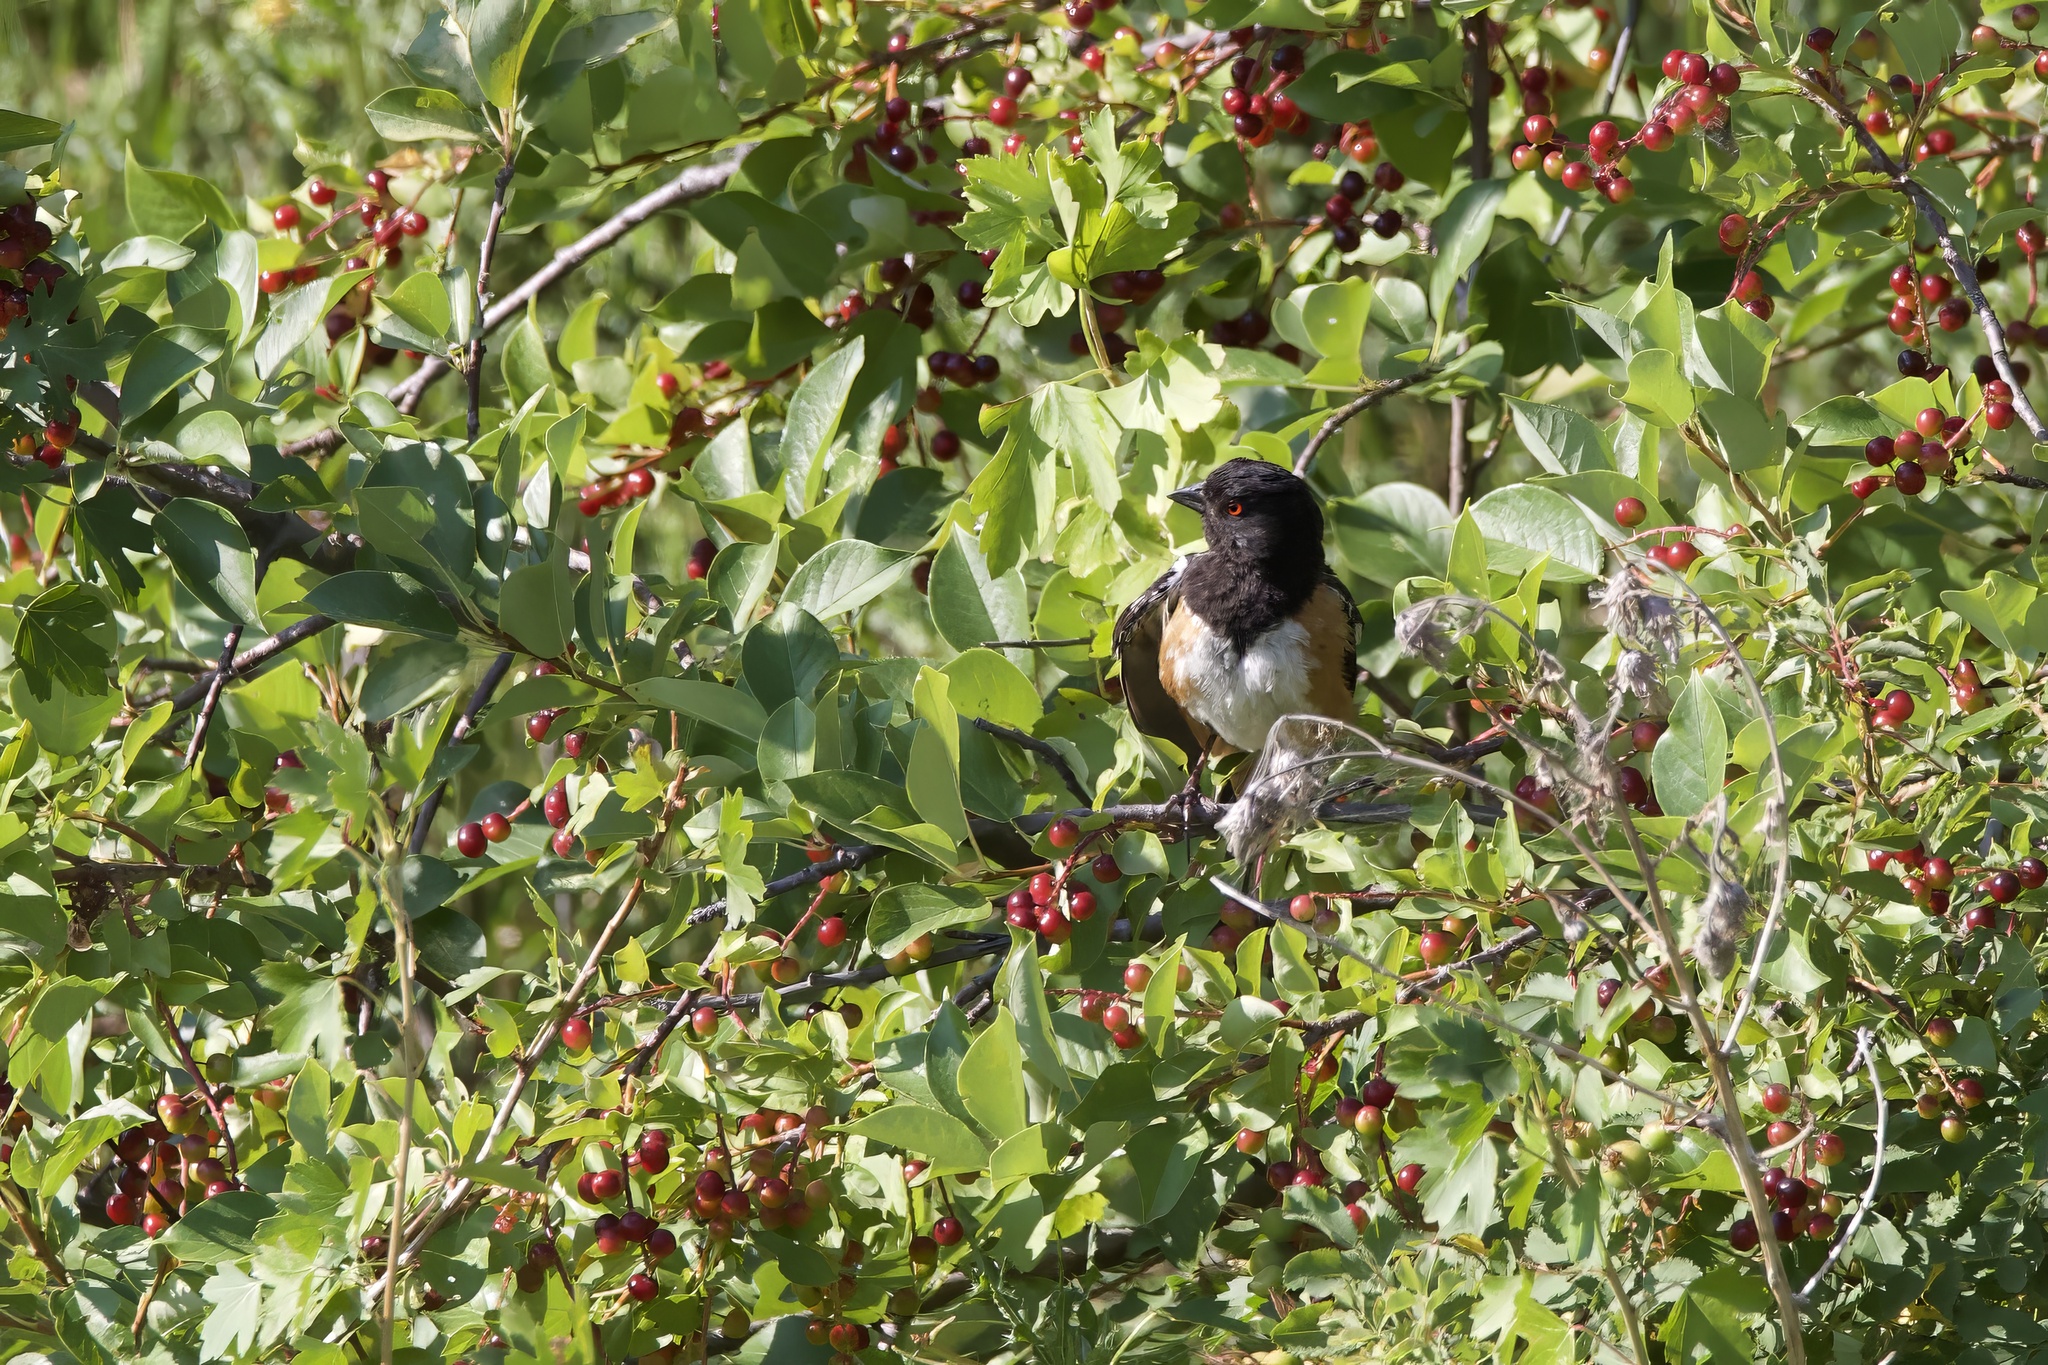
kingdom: Animalia
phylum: Chordata
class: Aves
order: Passeriformes
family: Passerellidae
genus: Pipilo
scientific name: Pipilo maculatus
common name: Spotted towhee
